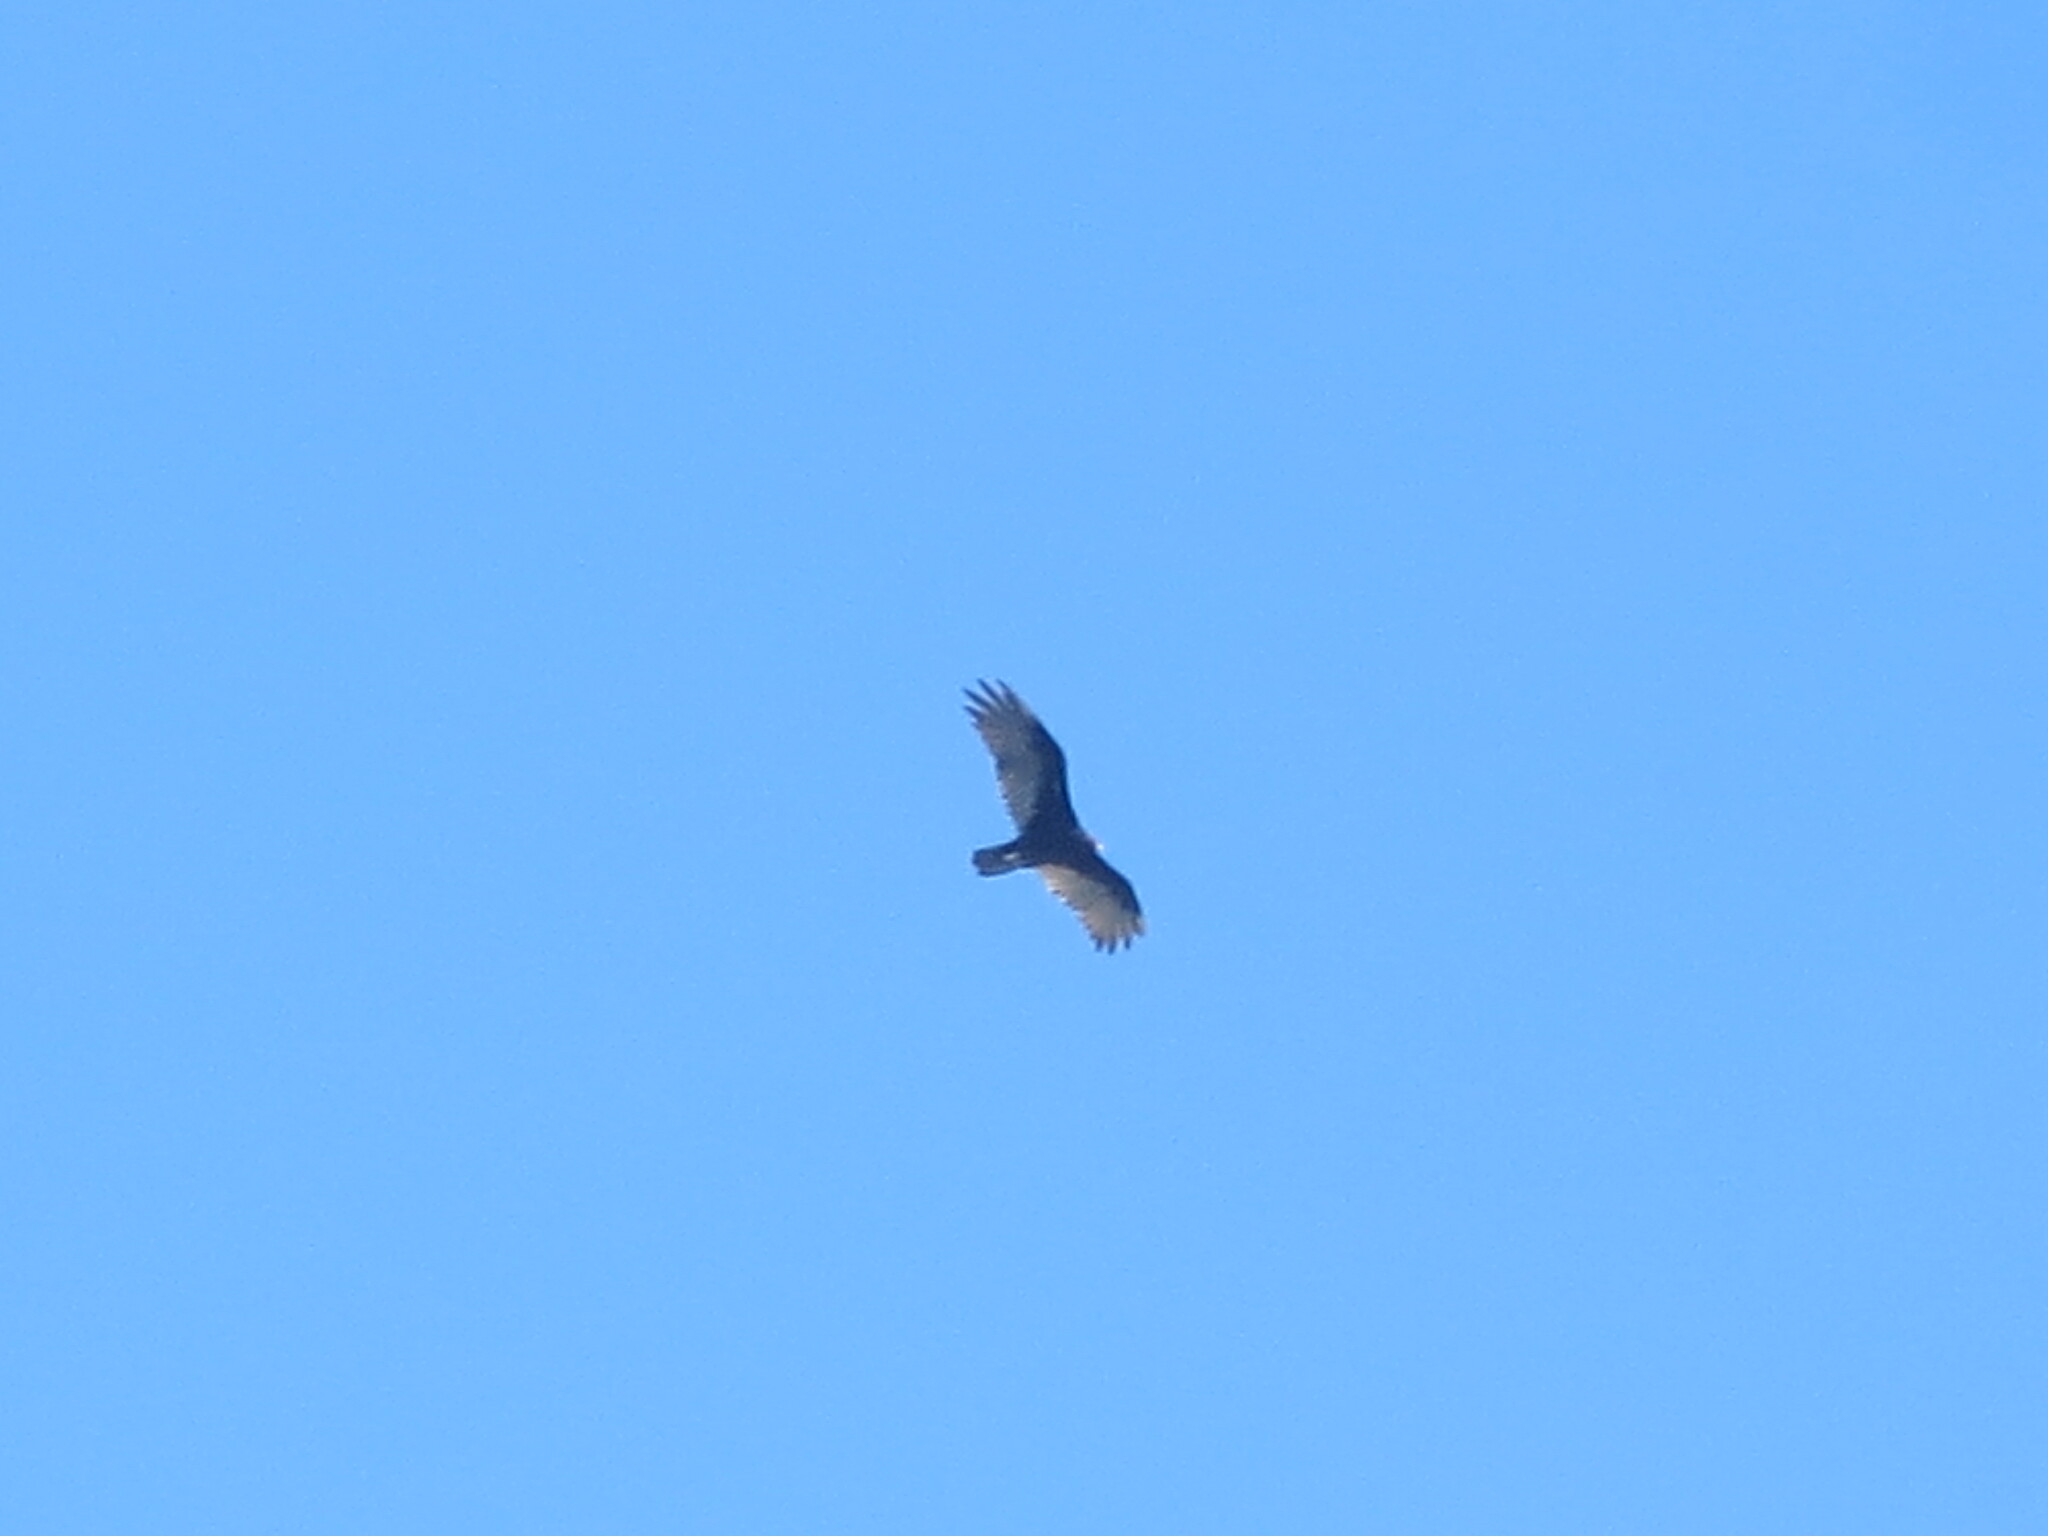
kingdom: Animalia
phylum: Chordata
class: Aves
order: Accipitriformes
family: Cathartidae
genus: Cathartes
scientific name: Cathartes aura
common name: Turkey vulture
